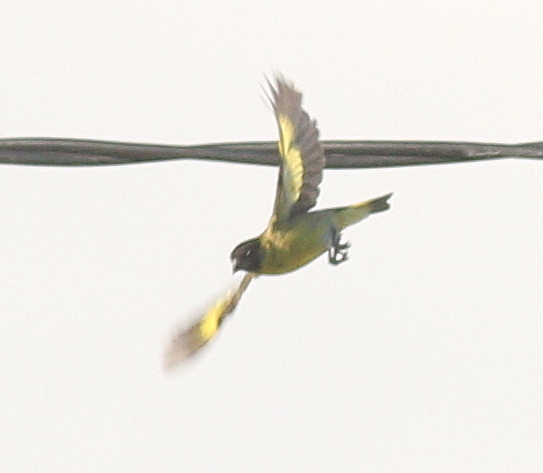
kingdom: Animalia
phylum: Chordata
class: Aves
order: Passeriformes
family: Fringillidae
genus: Spinus
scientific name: Spinus magellanicus
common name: Hooded siskin
